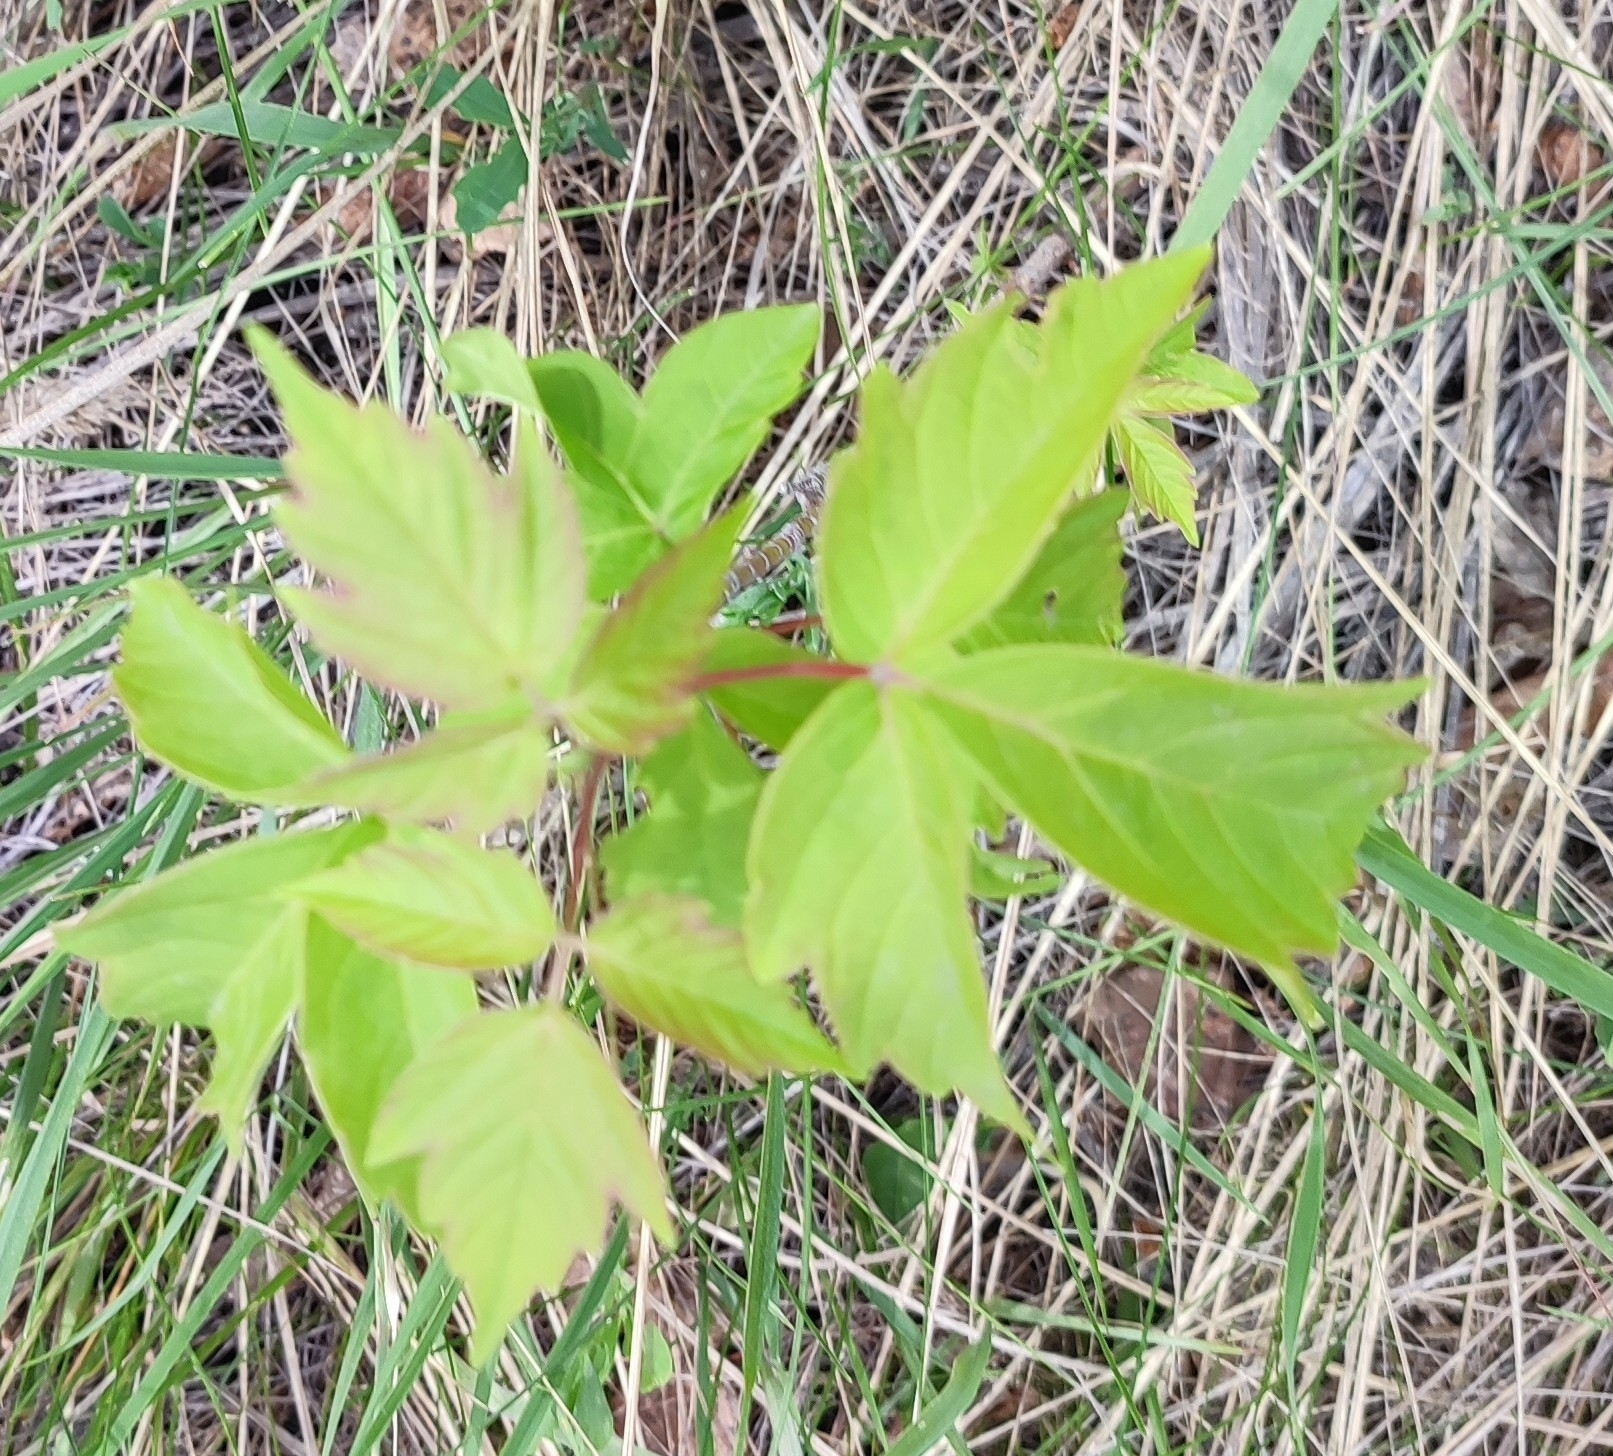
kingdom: Plantae
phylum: Tracheophyta
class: Magnoliopsida
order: Sapindales
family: Sapindaceae
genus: Acer
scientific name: Acer negundo
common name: Ashleaf maple
